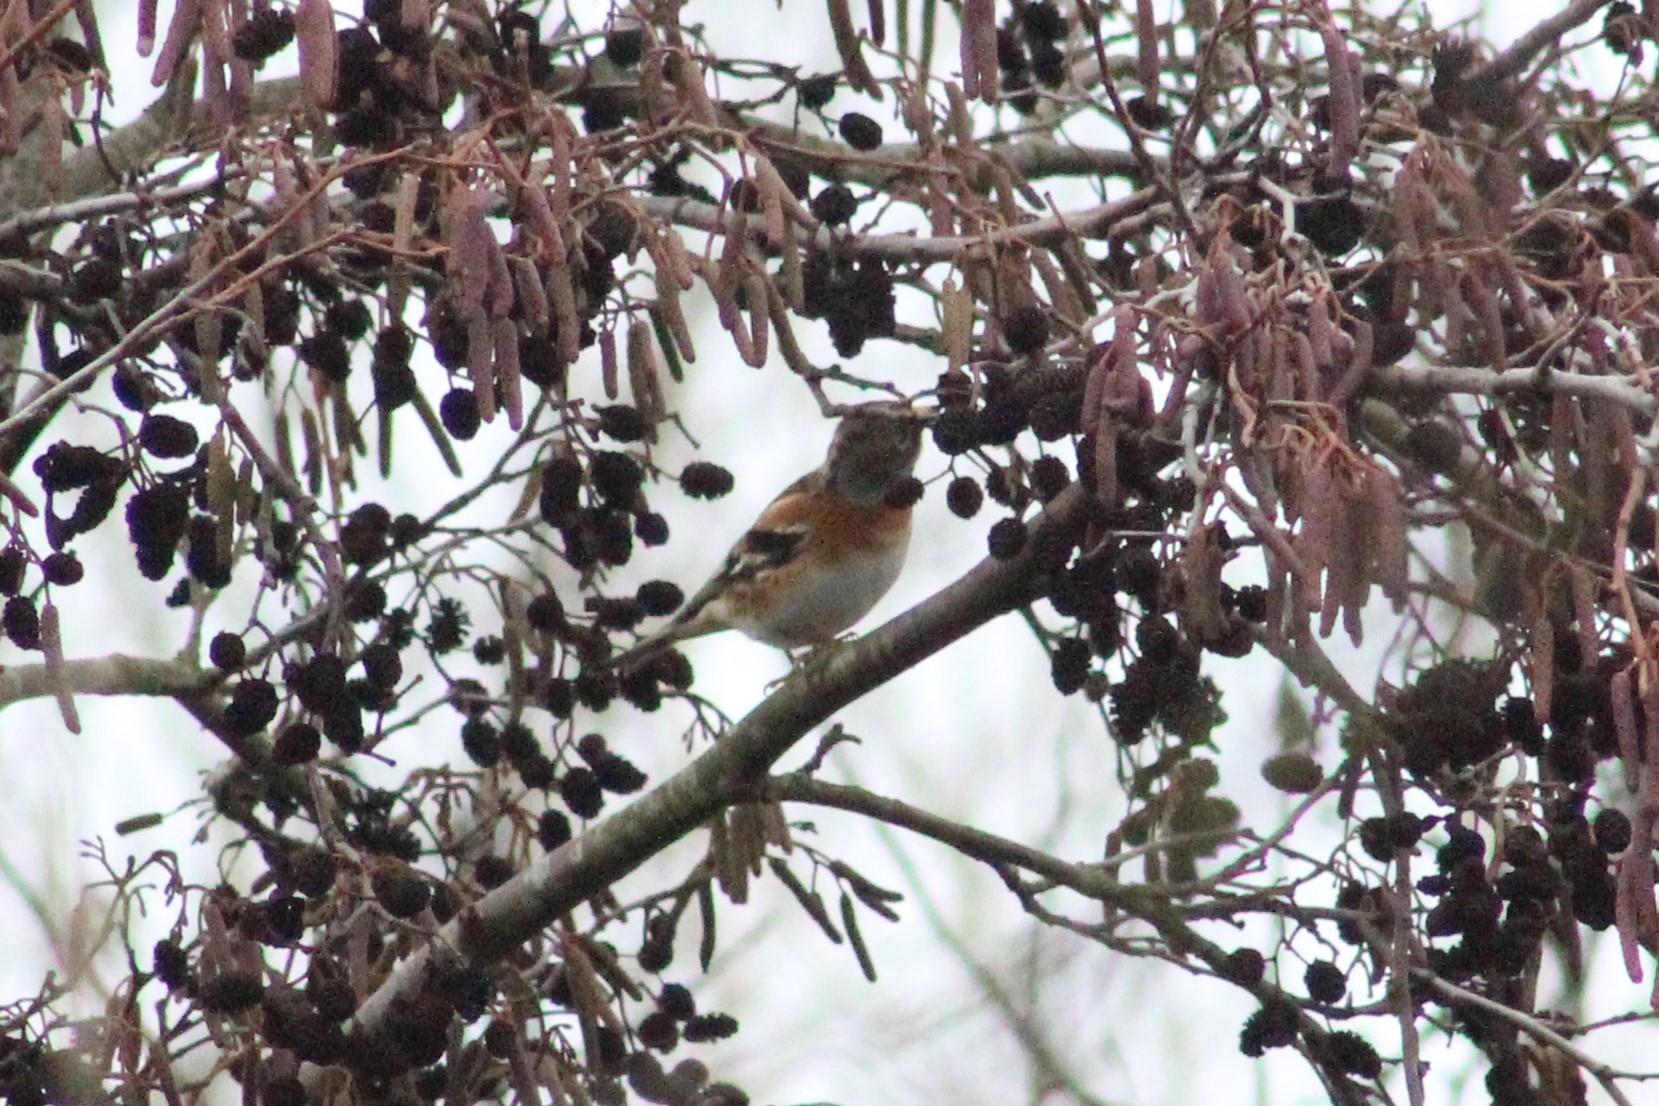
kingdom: Animalia
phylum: Chordata
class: Aves
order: Passeriformes
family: Fringillidae
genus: Fringilla
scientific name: Fringilla montifringilla
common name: Brambling
